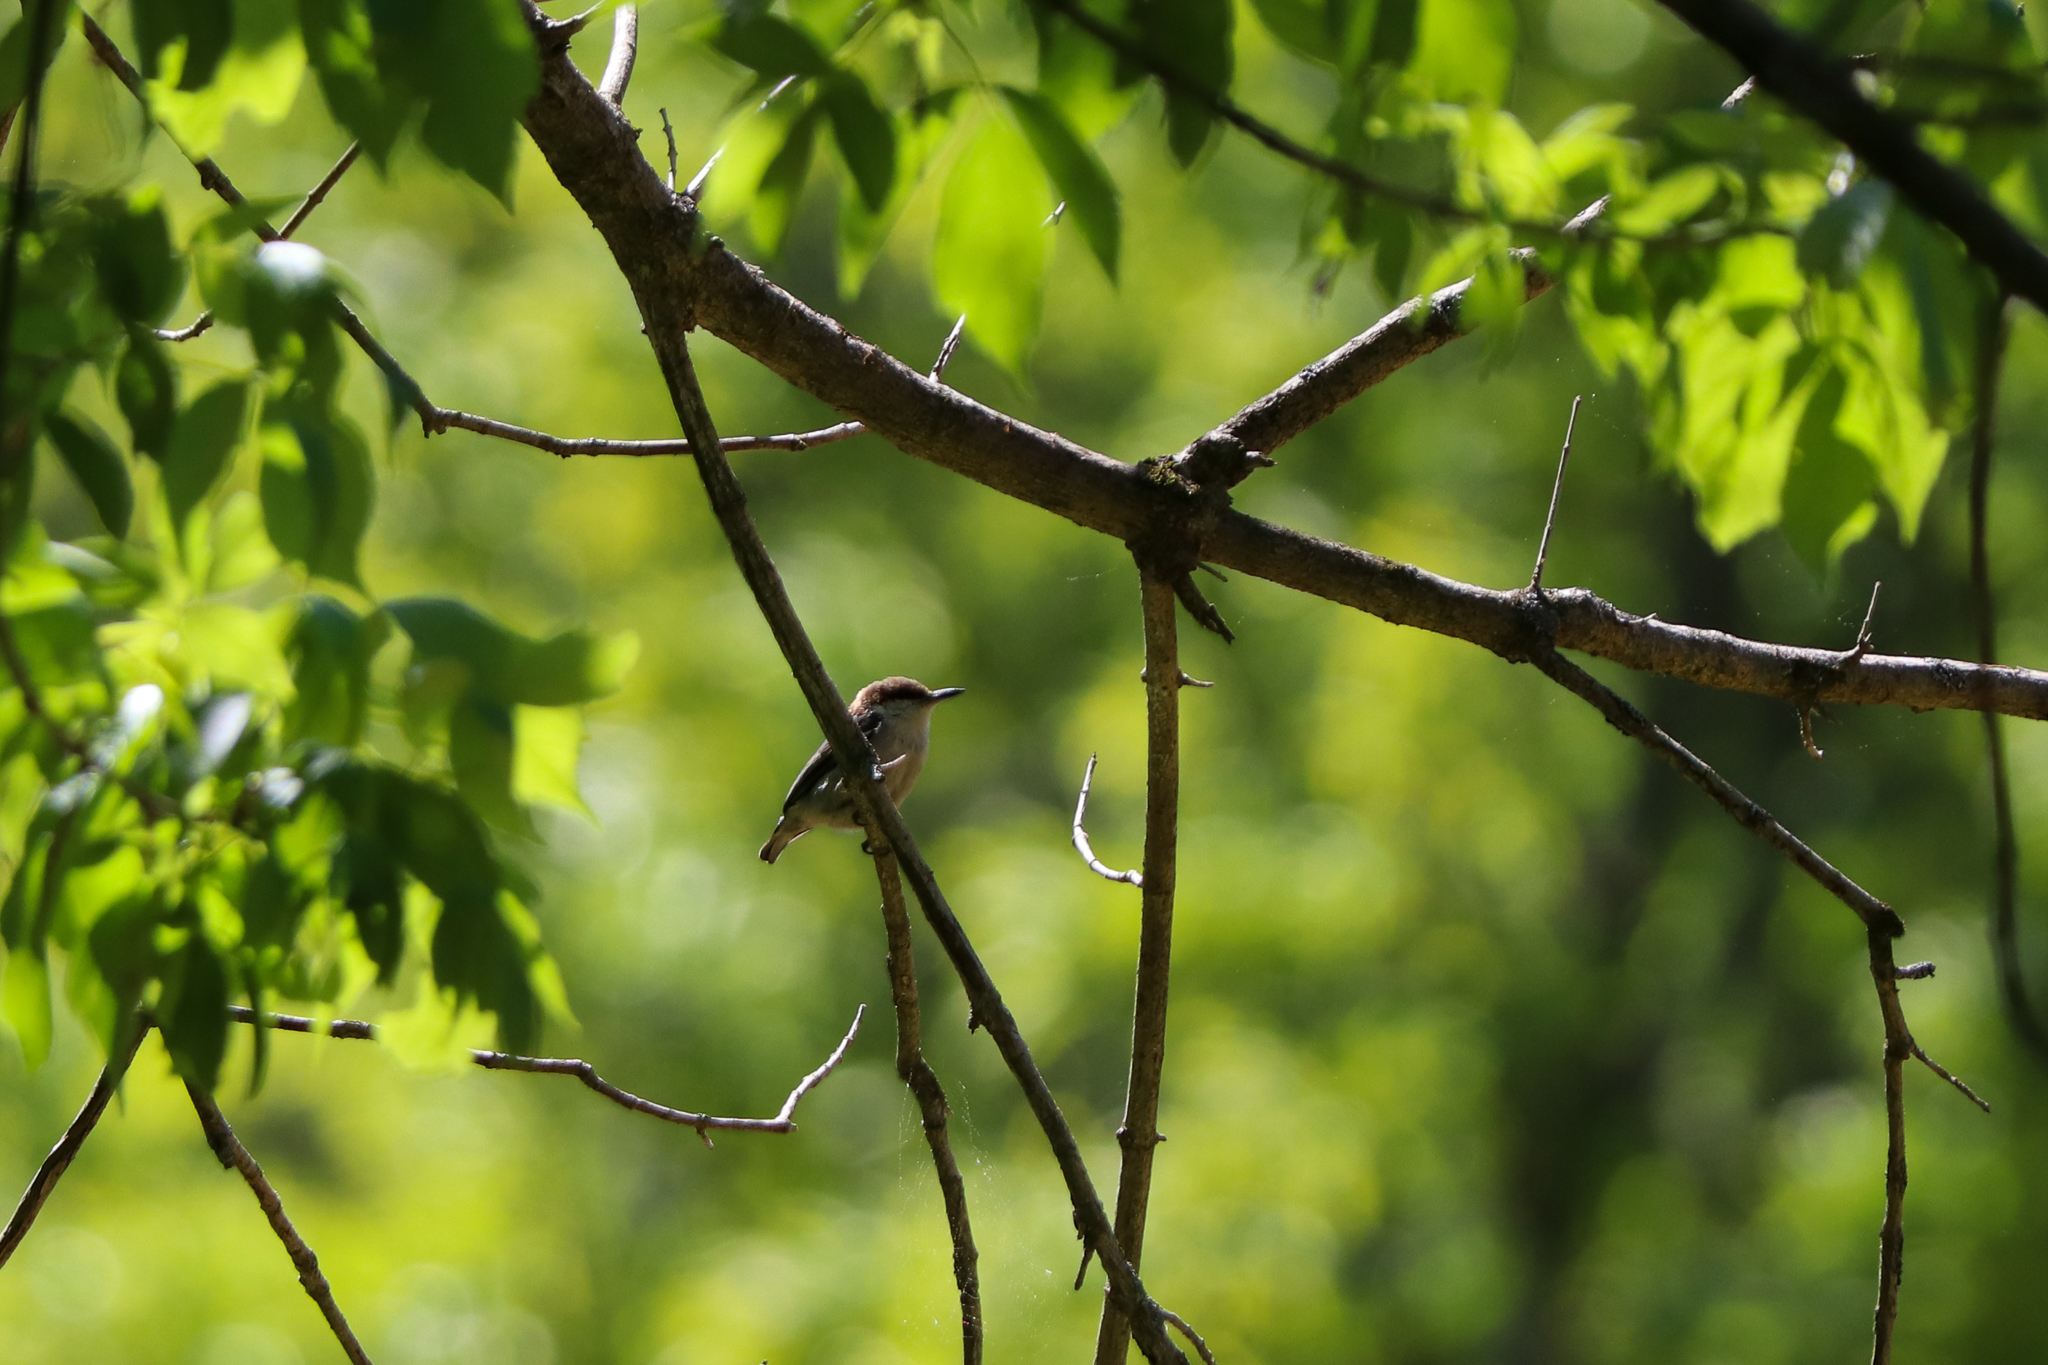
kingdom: Animalia
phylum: Chordata
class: Aves
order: Passeriformes
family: Sittidae
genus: Sitta
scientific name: Sitta pusilla
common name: Brown-headed nuthatch
